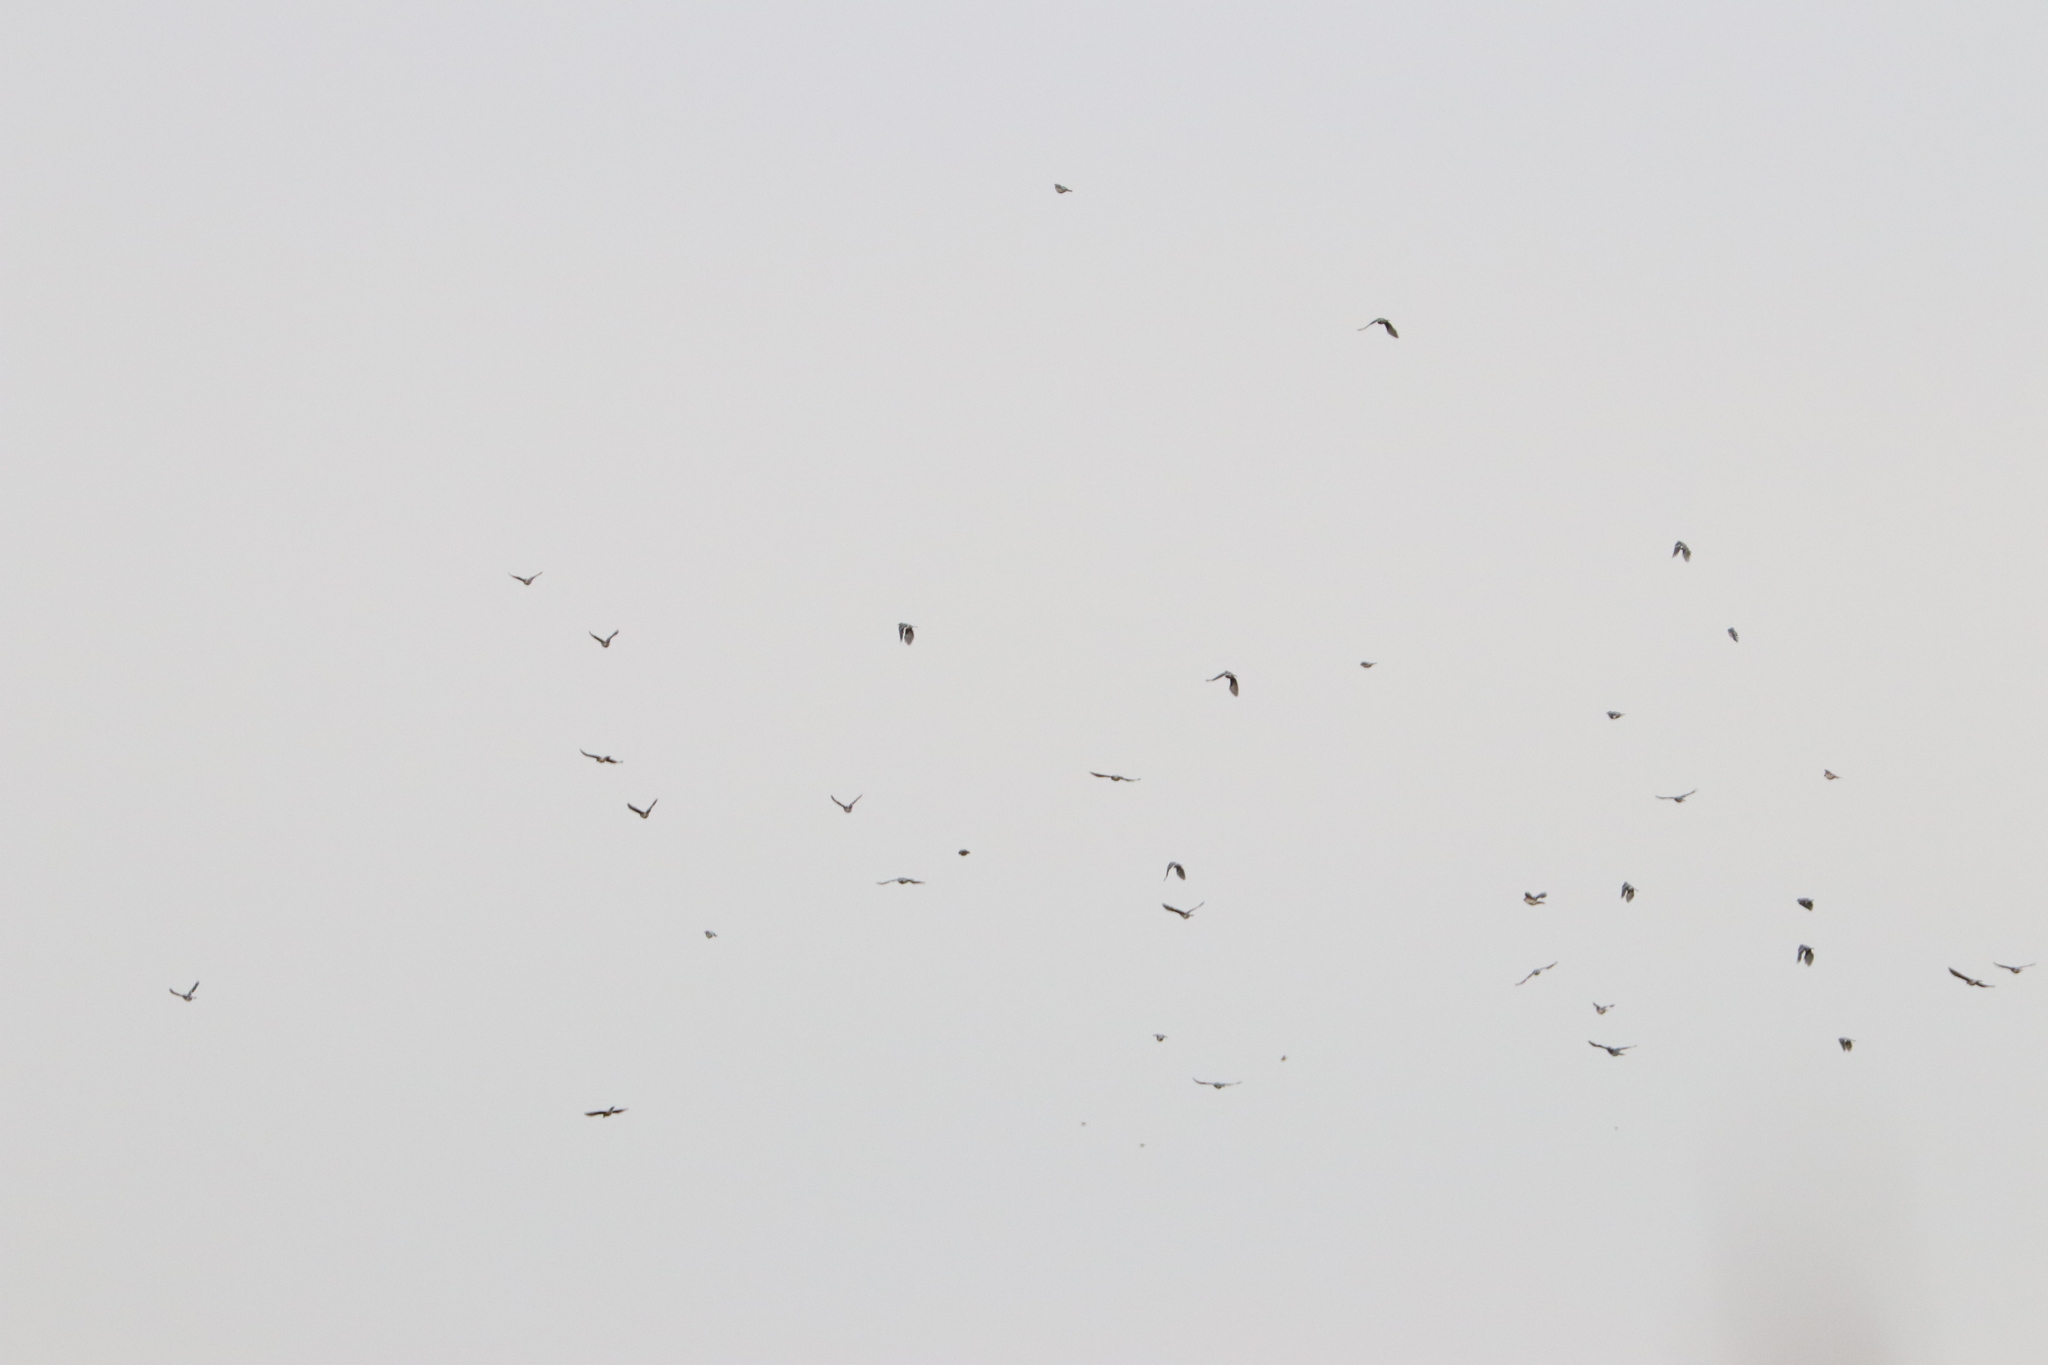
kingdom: Animalia
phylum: Chordata
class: Aves
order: Passeriformes
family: Corvidae
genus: Cyanocitta
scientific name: Cyanocitta cristata
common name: Blue jay
